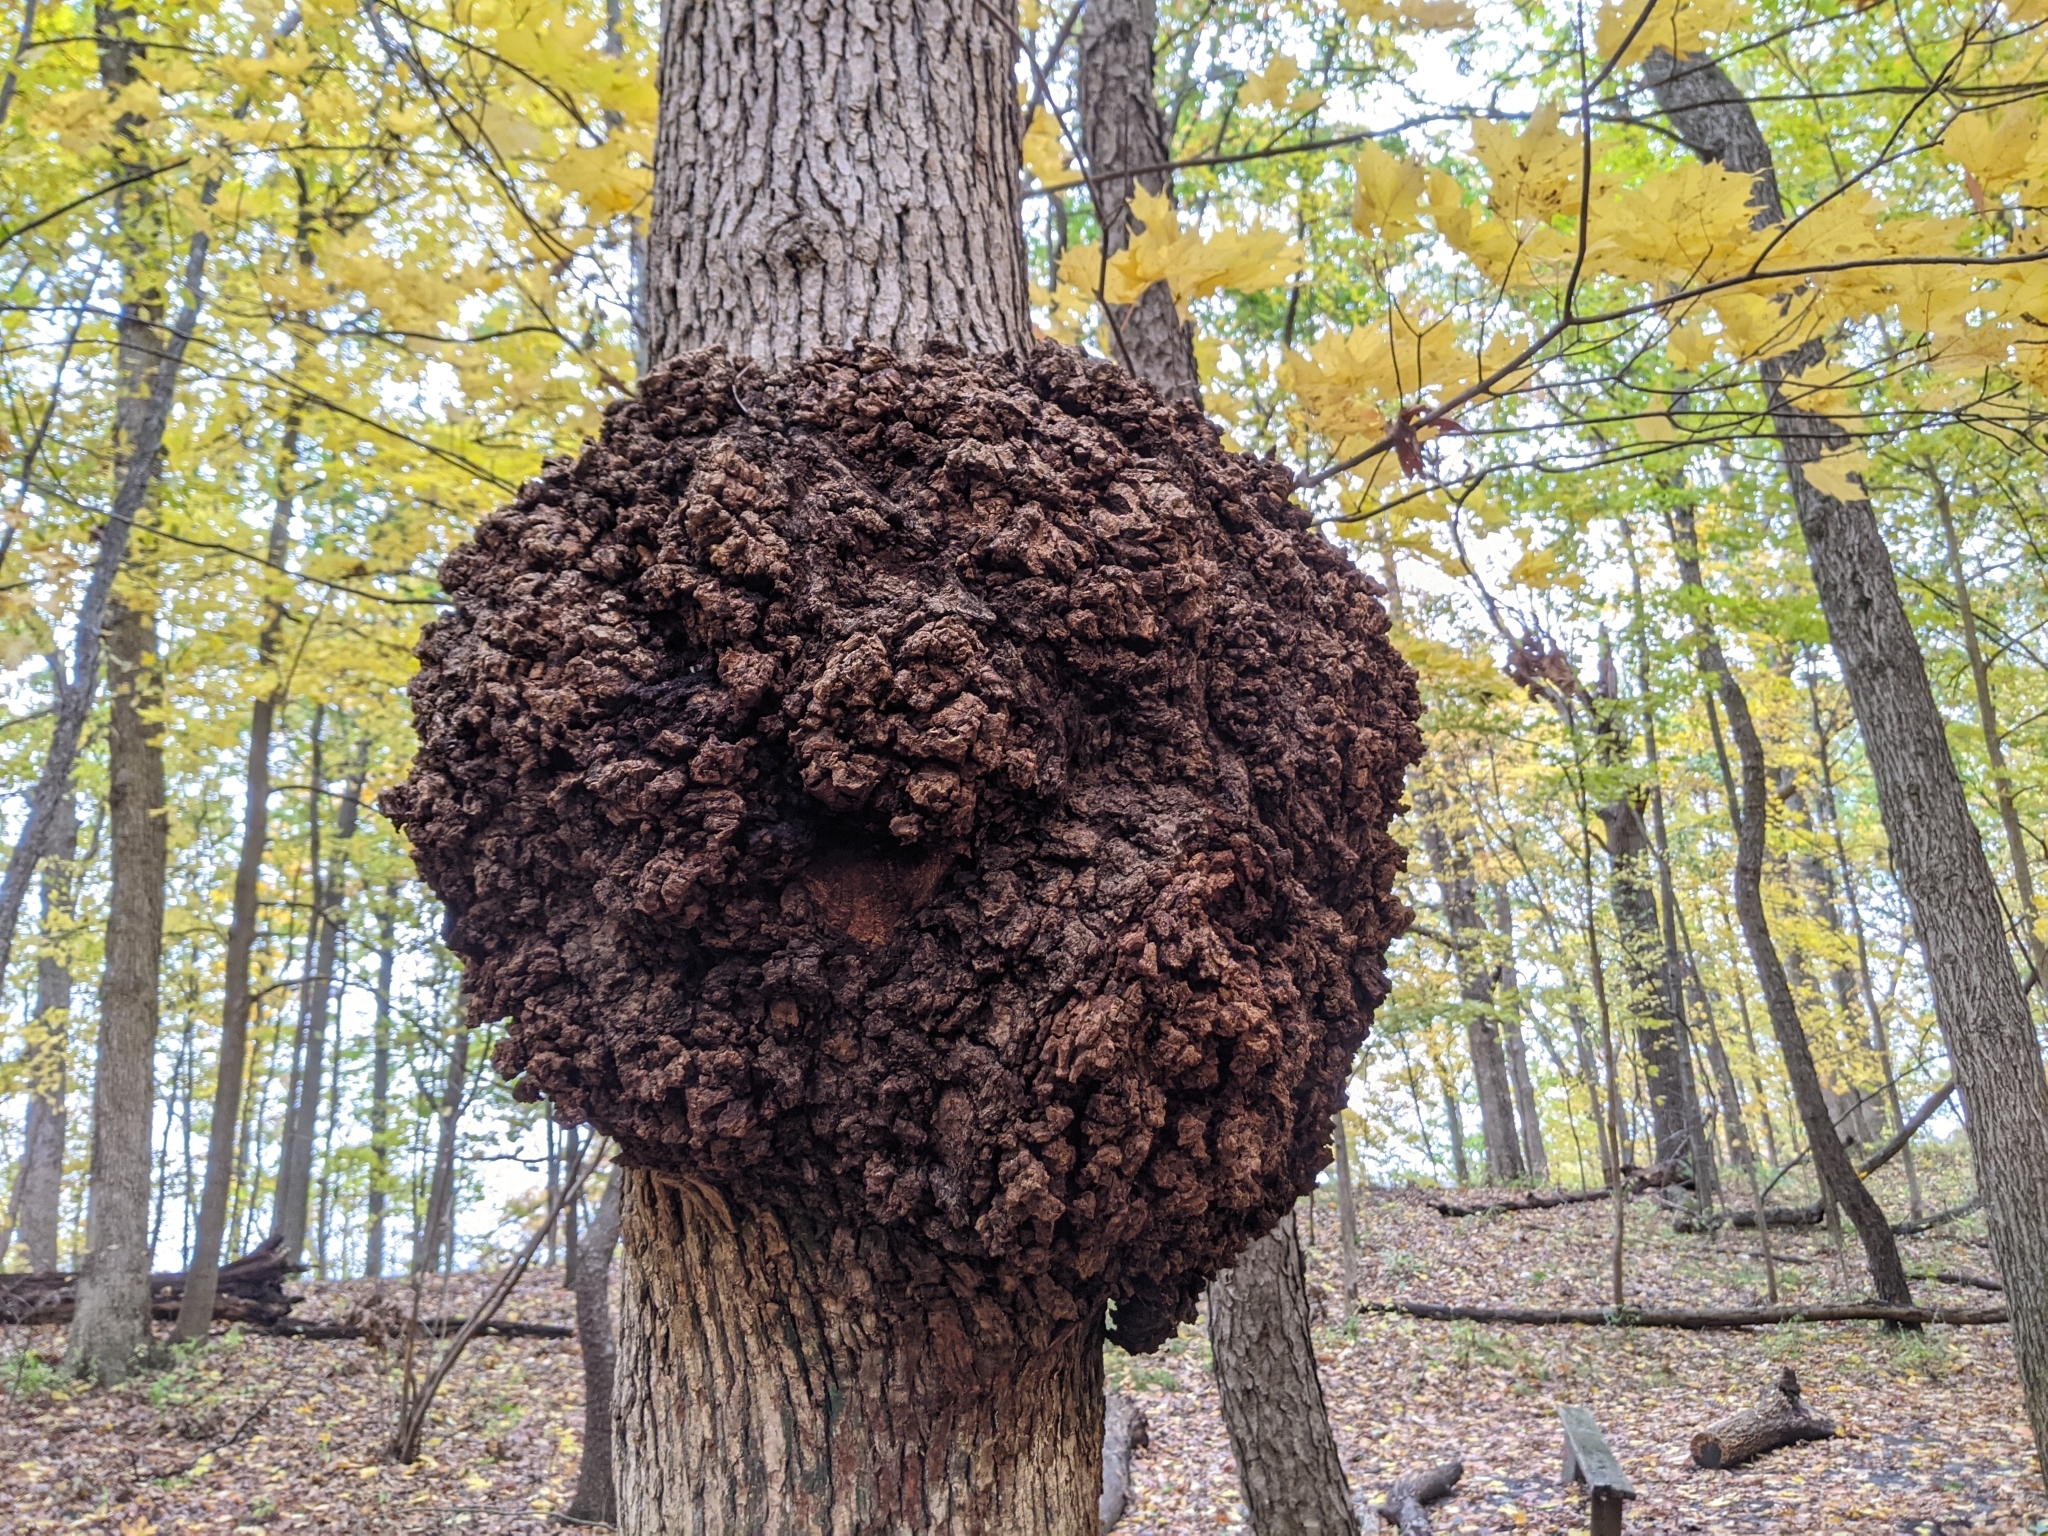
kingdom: Bacteria
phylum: Proteobacteria
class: Alphaproteobacteria
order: Rhizobiales
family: Rhizobiaceae
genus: Rhizobium
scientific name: Rhizobium Agrobacterium radiobacter
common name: Bacterial crown gall
